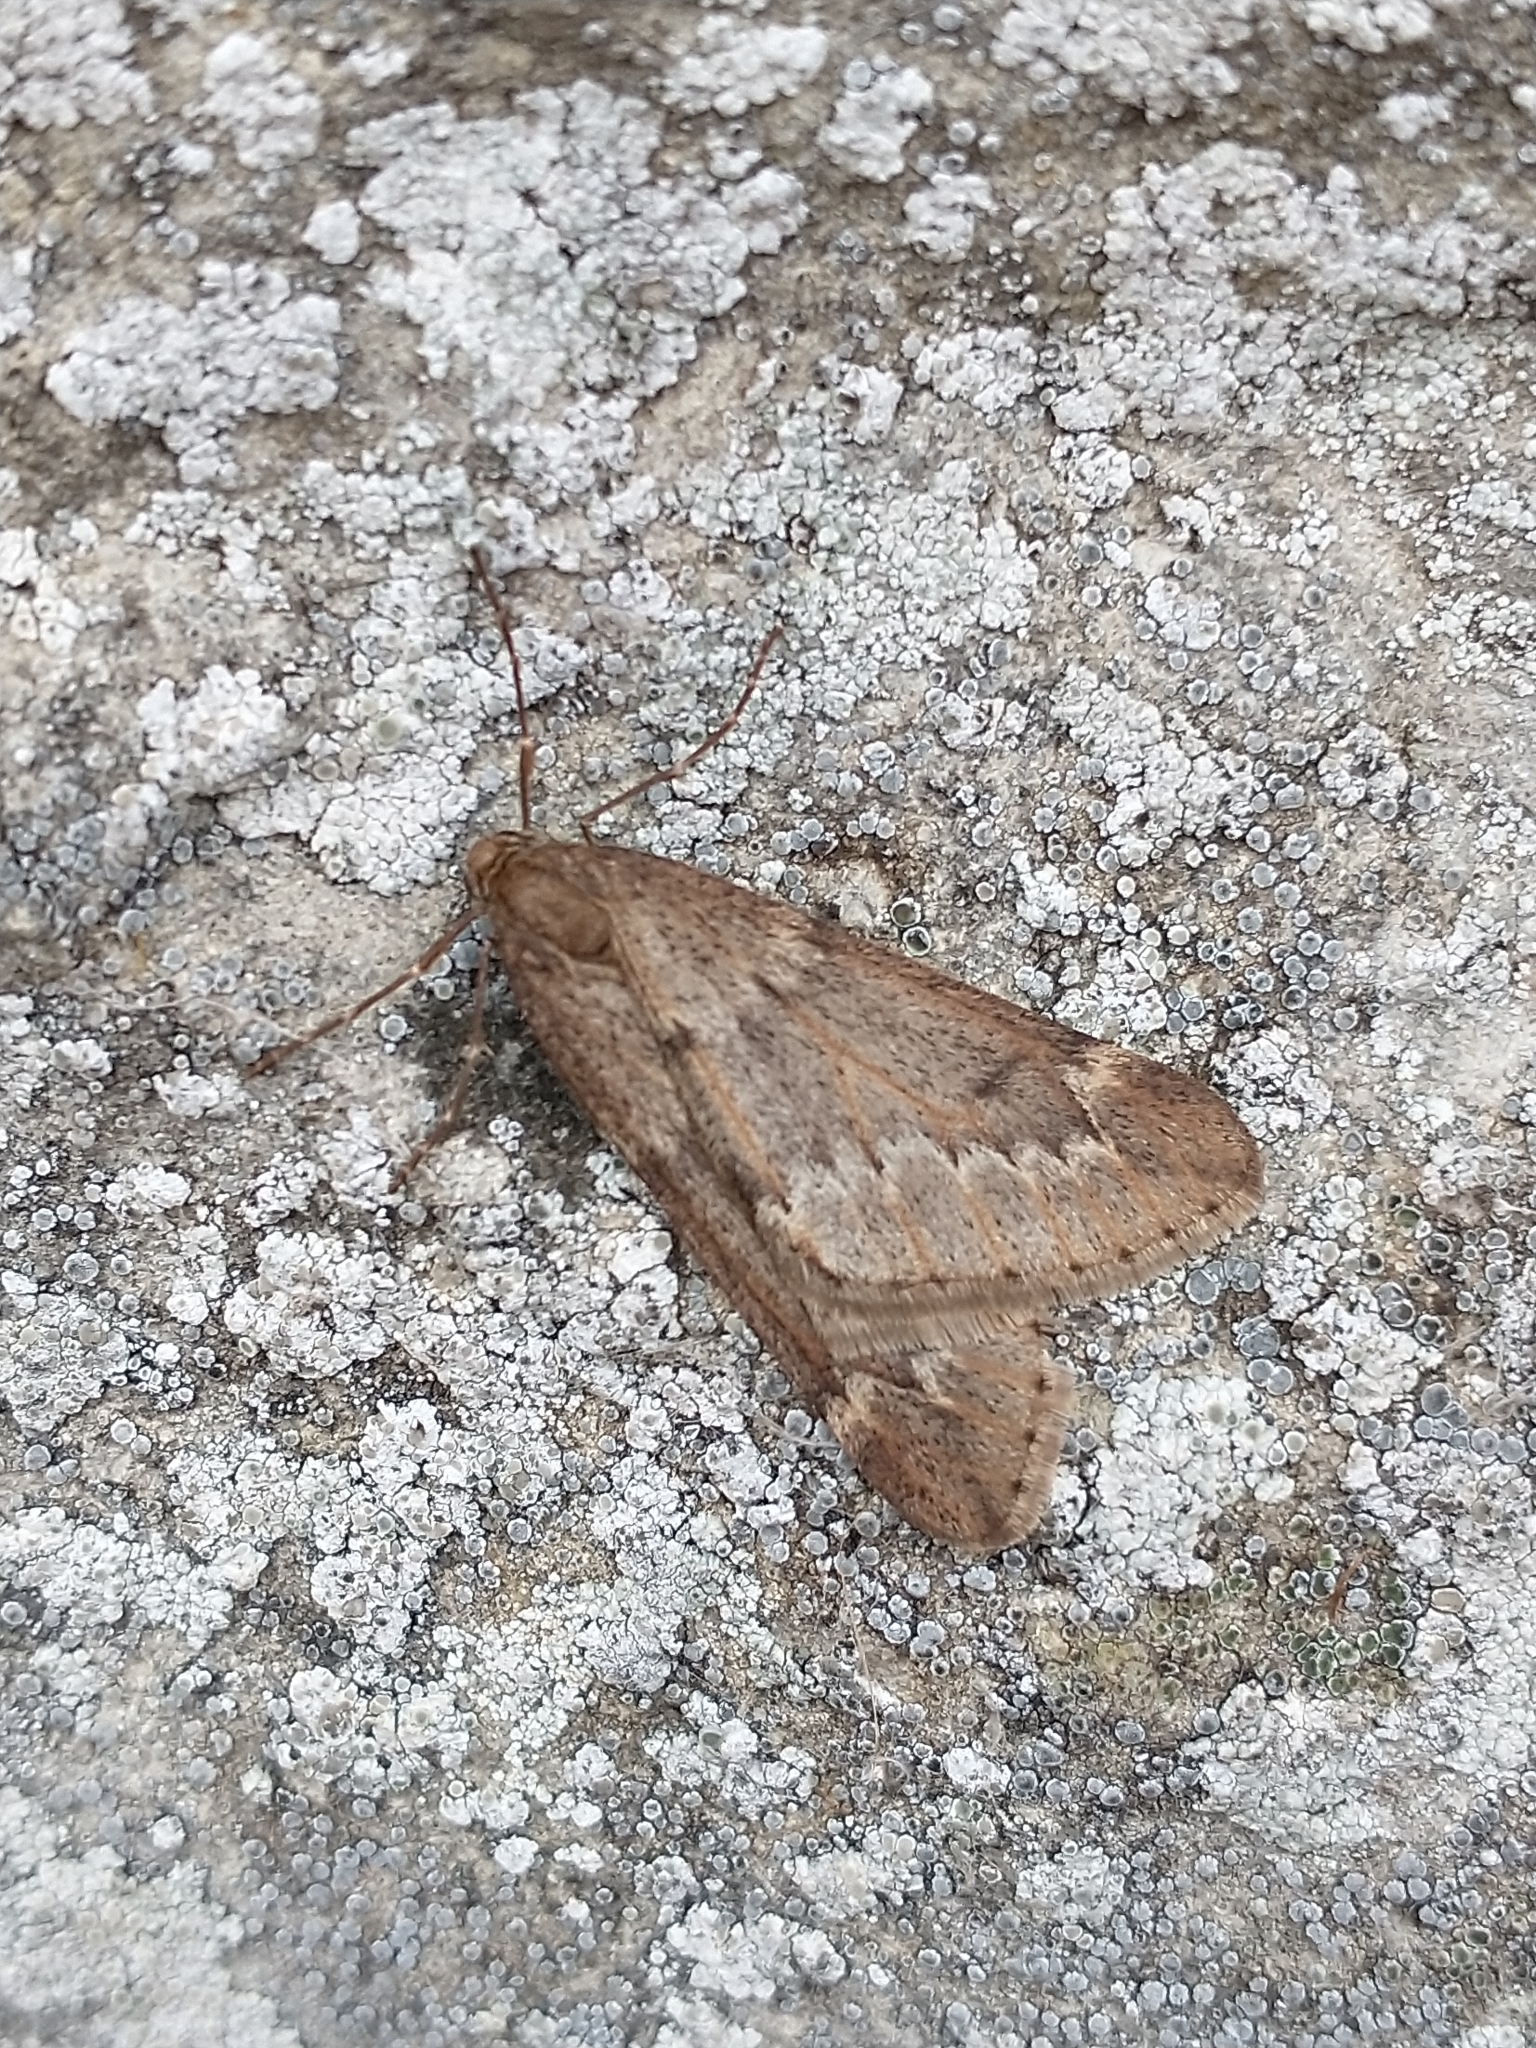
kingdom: Animalia
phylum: Arthropoda
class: Insecta
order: Lepidoptera
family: Geometridae
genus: Alsophila
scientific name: Alsophila aescularia
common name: March moth
